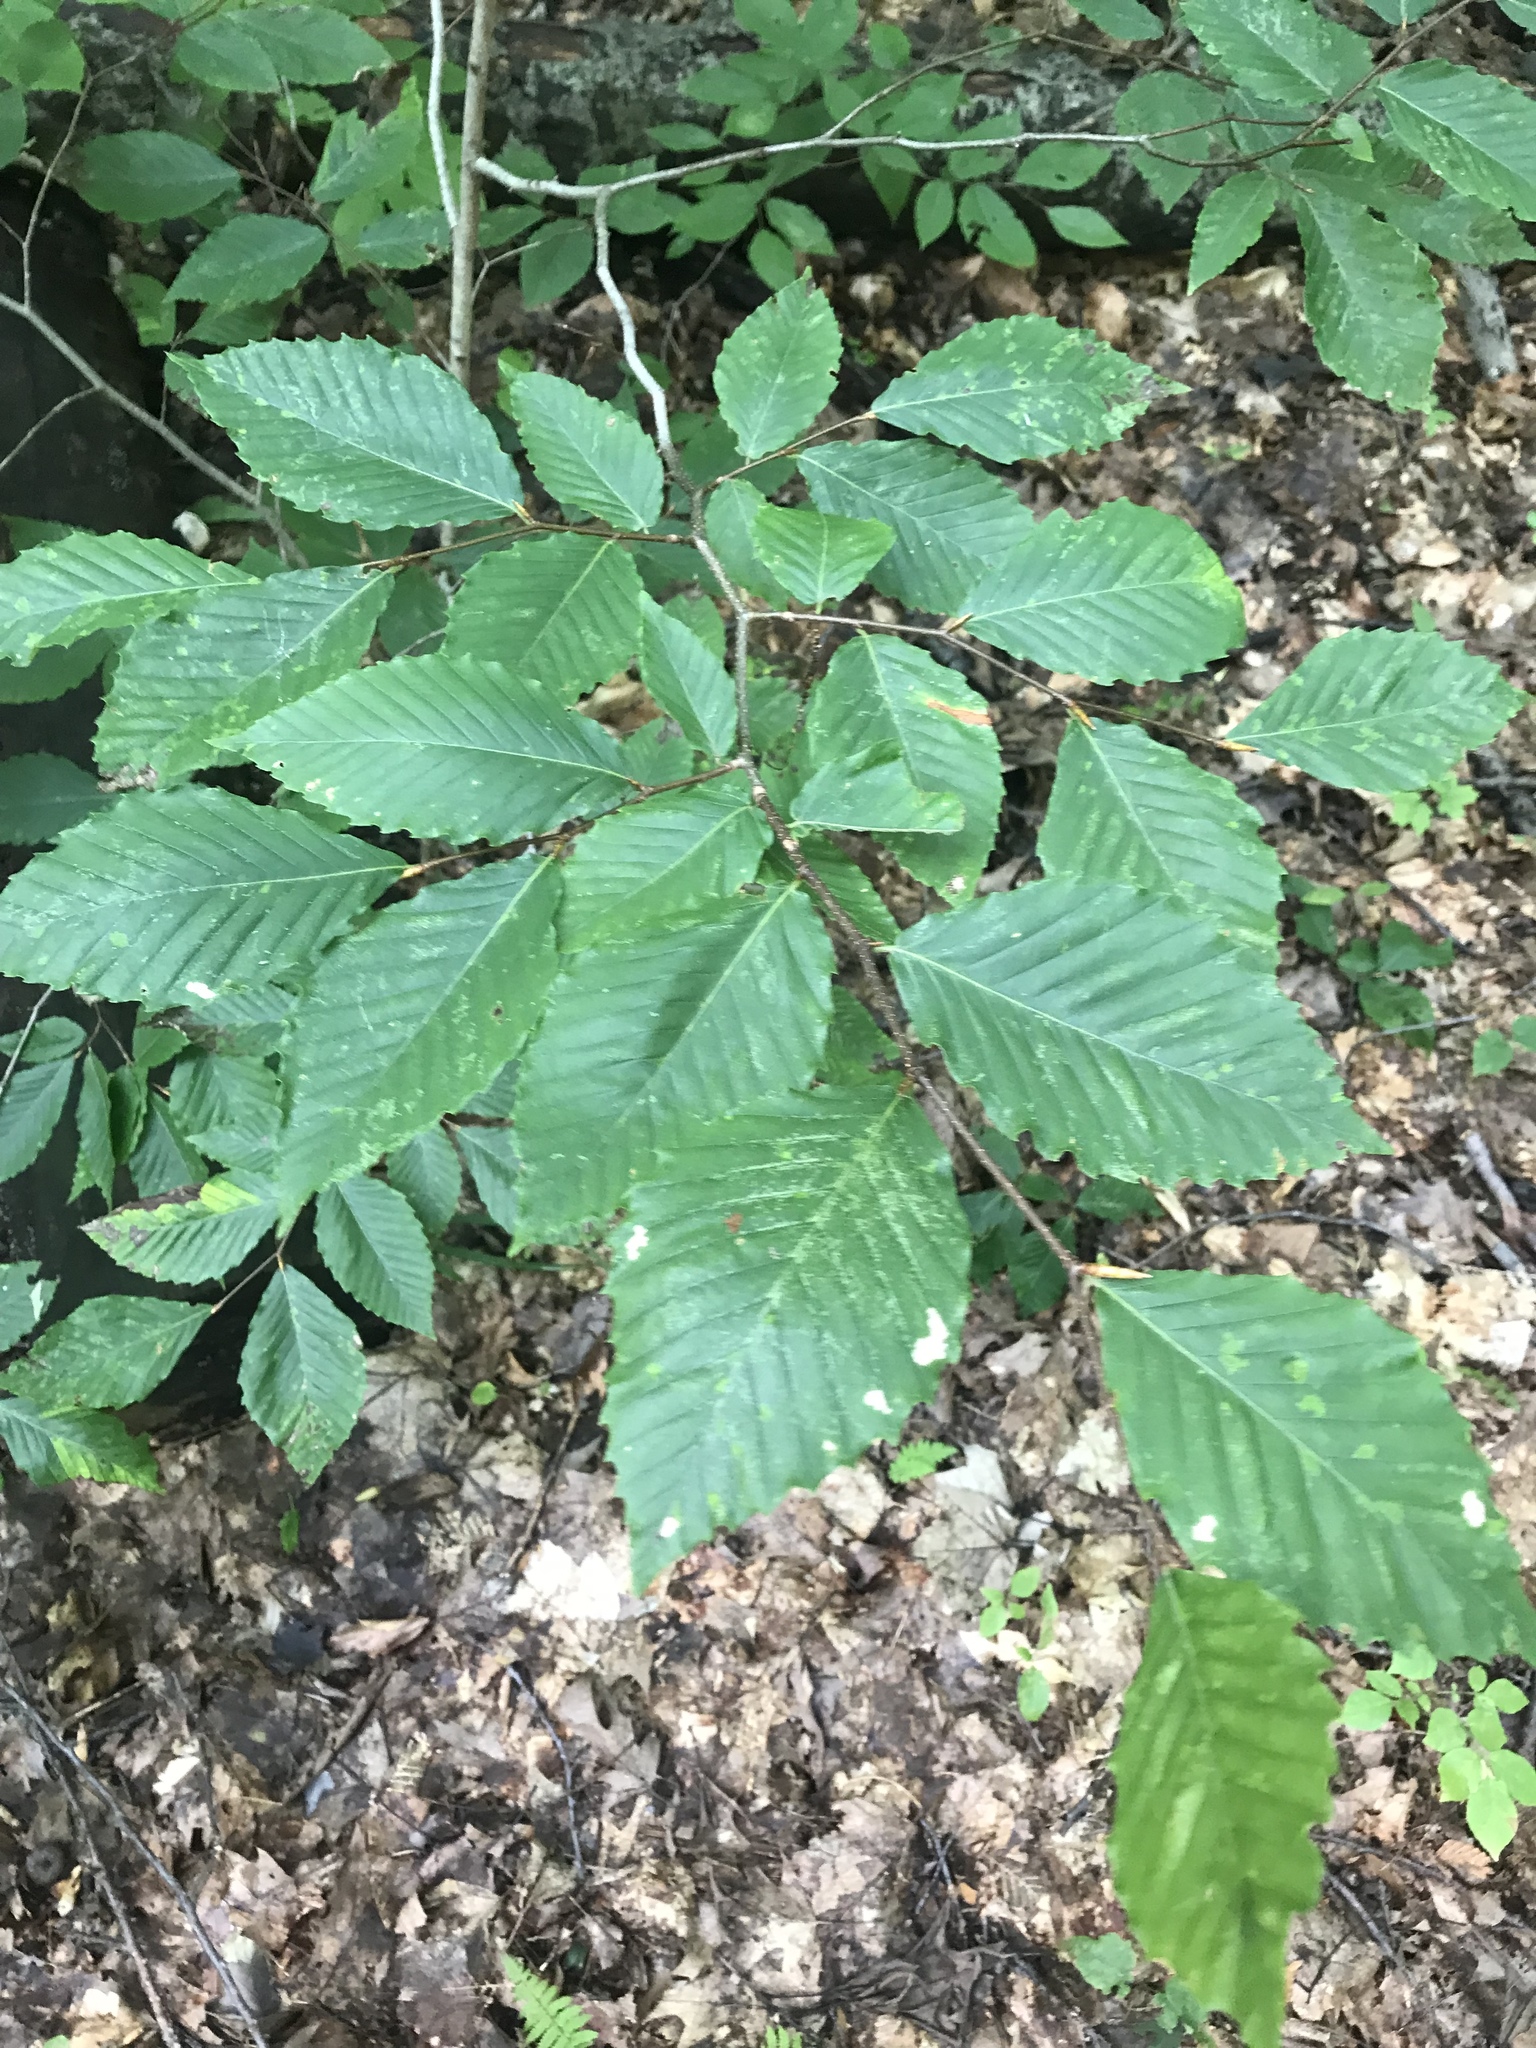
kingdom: Plantae
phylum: Tracheophyta
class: Magnoliopsida
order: Fagales
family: Fagaceae
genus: Fagus
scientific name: Fagus grandifolia
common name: American beech
